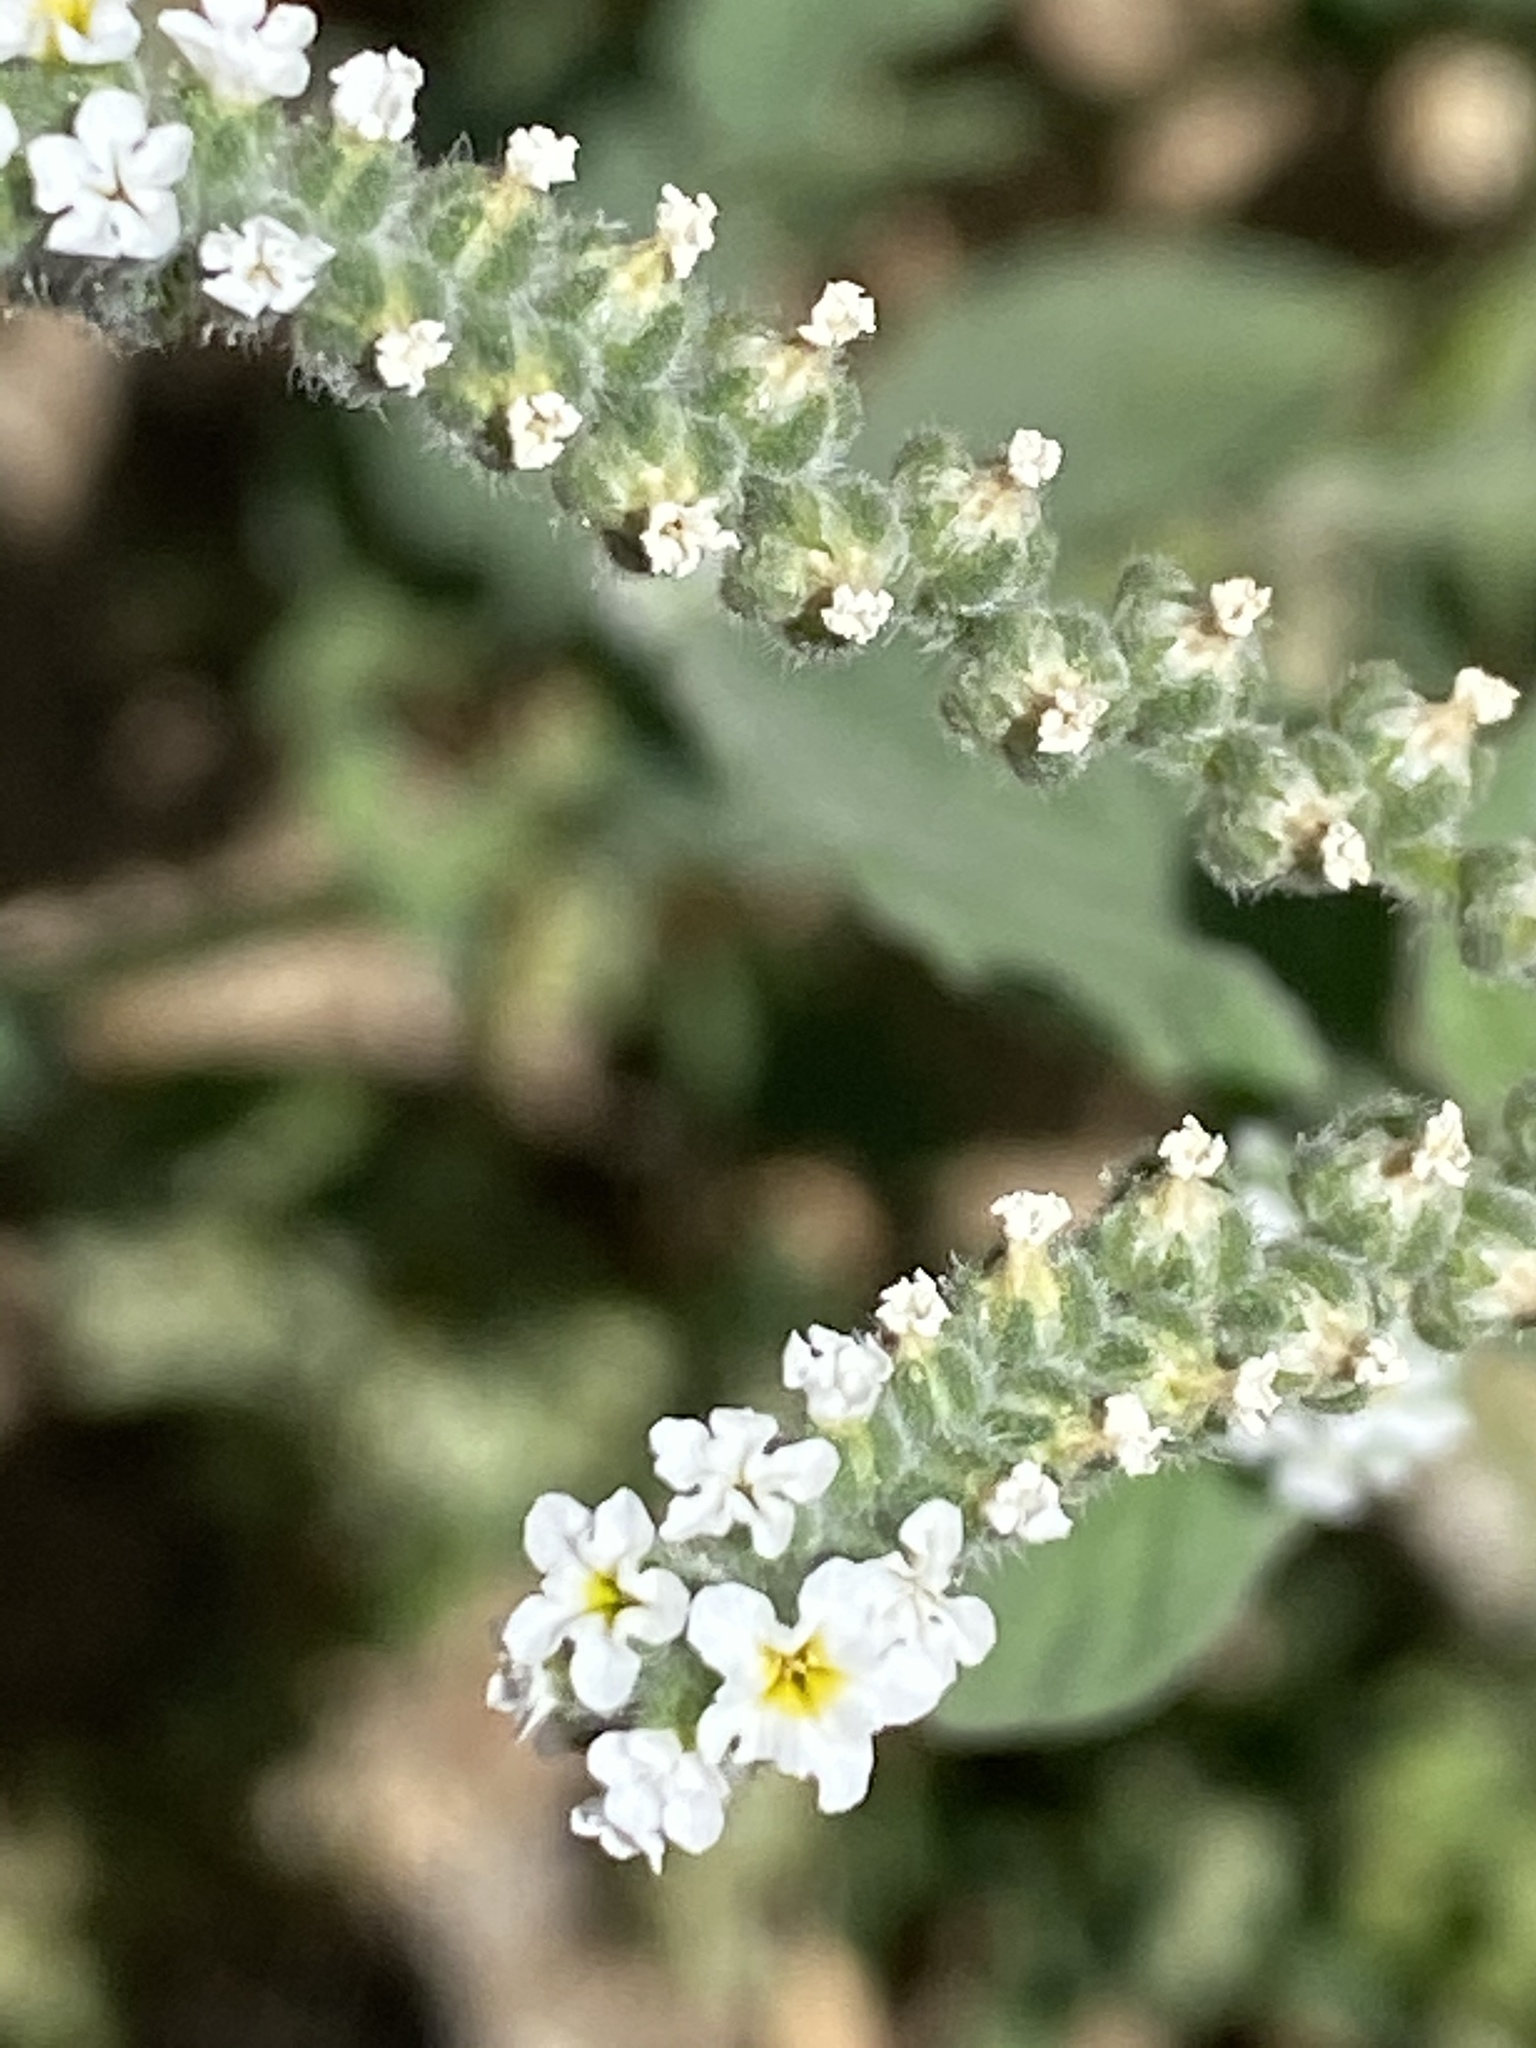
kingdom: Plantae
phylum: Tracheophyta
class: Magnoliopsida
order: Boraginales
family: Heliotropiaceae
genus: Heliotropium
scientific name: Heliotropium europaeum
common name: European heliotrope
